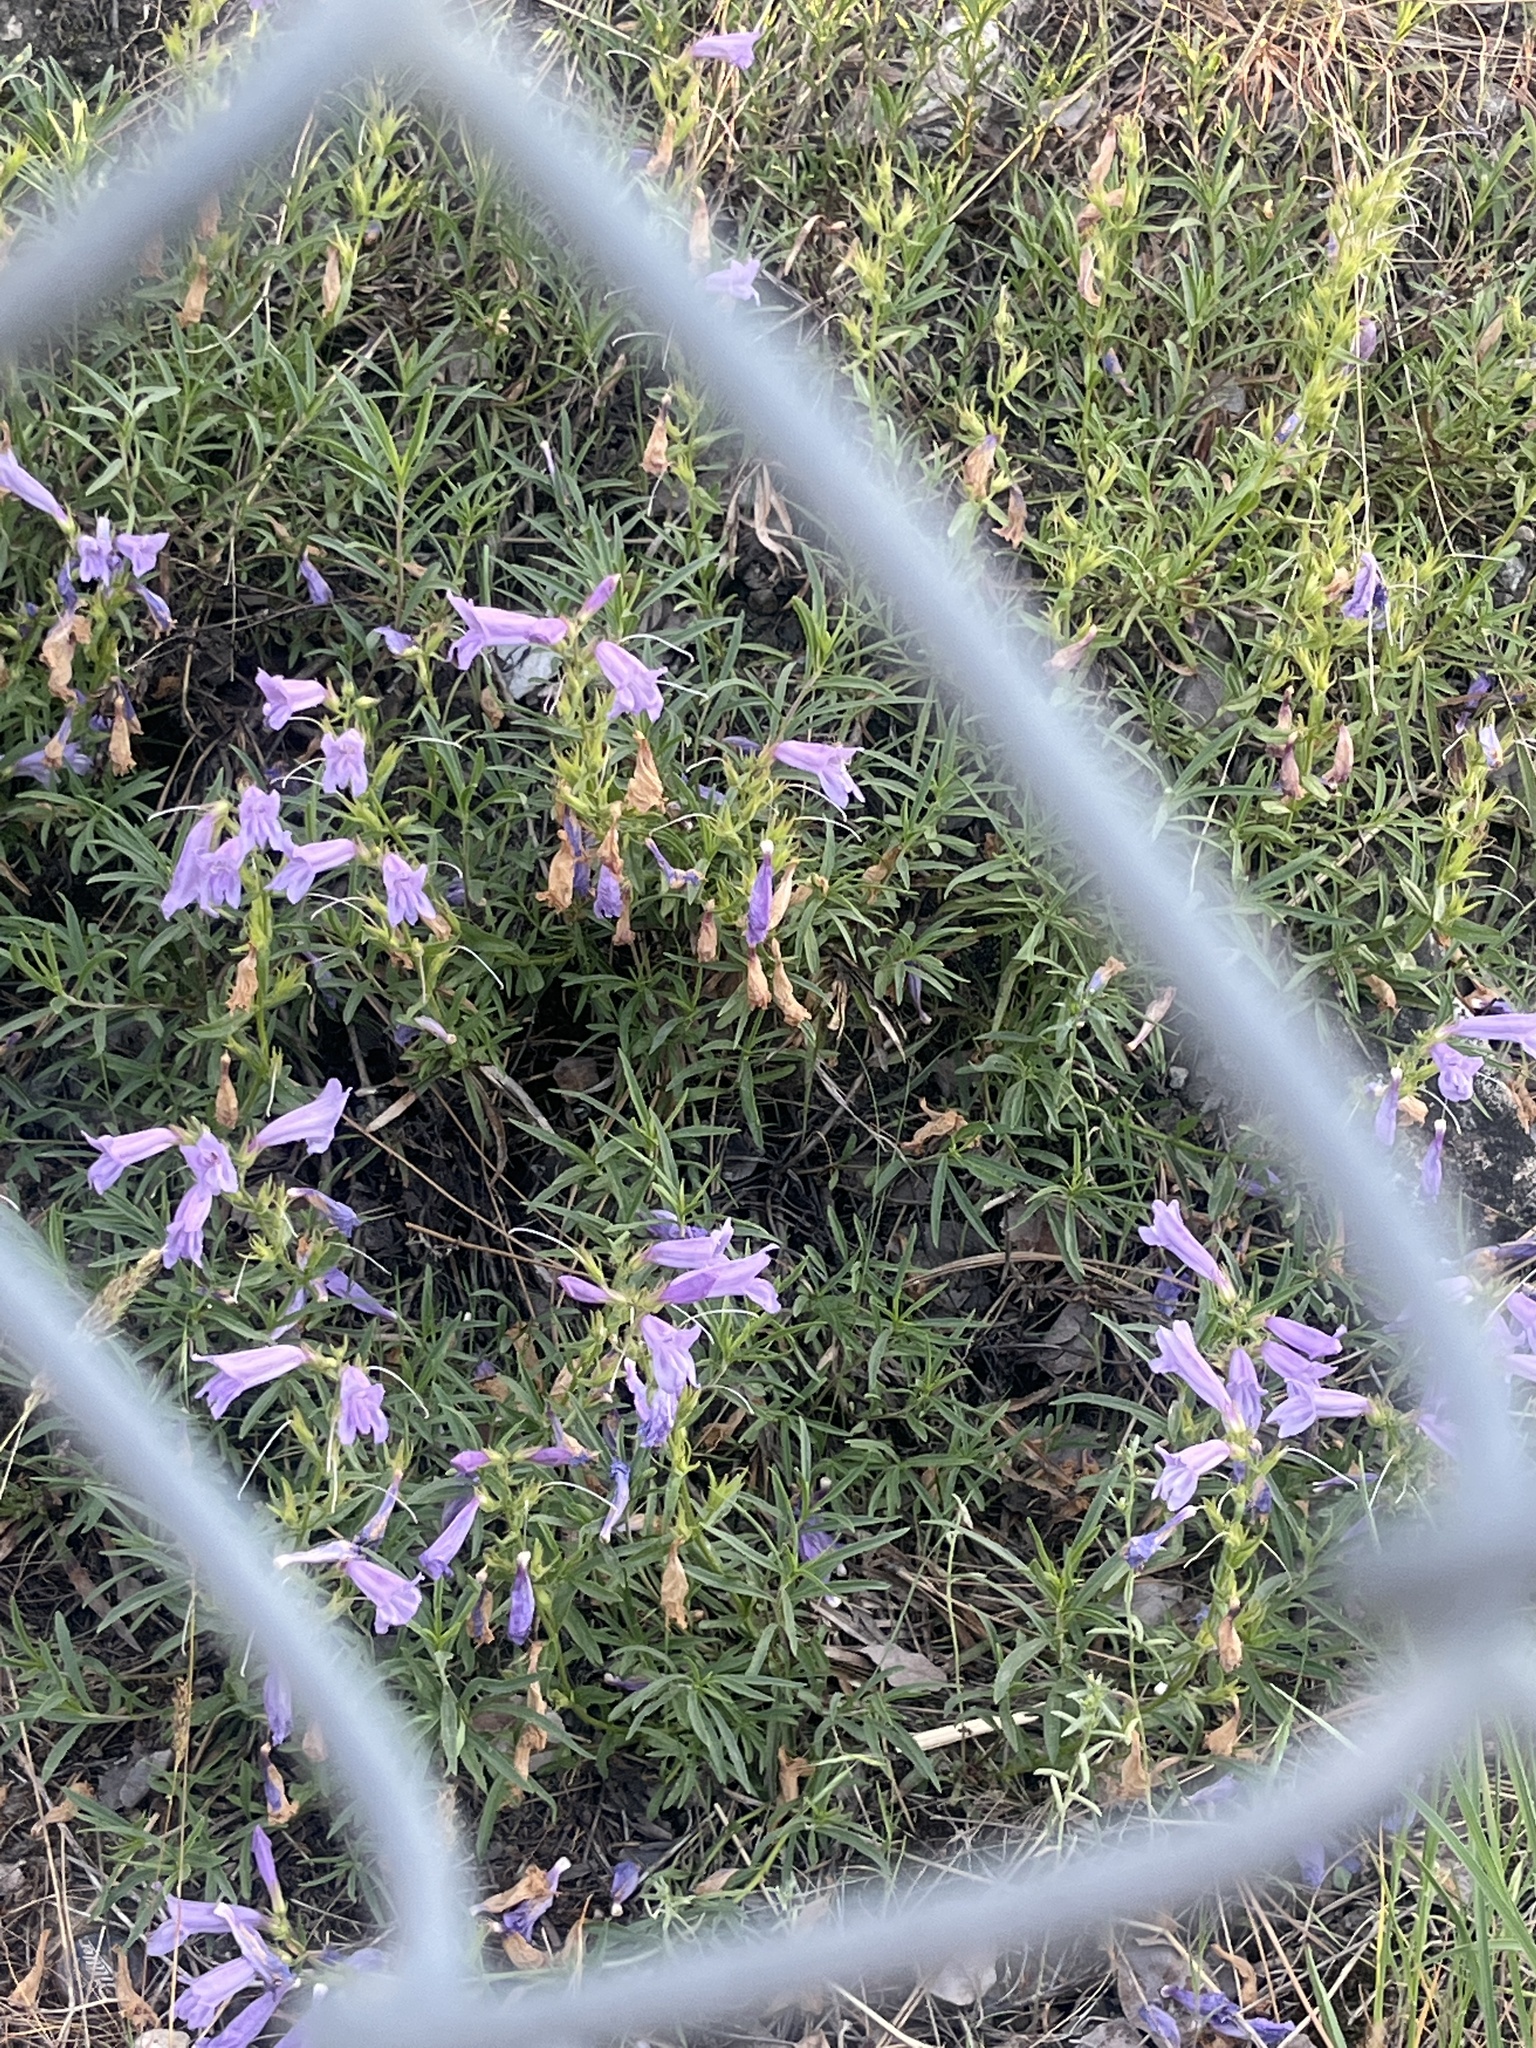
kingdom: Plantae
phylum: Tracheophyta
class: Magnoliopsida
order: Lamiales
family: Plantaginaceae
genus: Penstemon
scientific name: Penstemon fruticosus
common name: Bush penstemon
